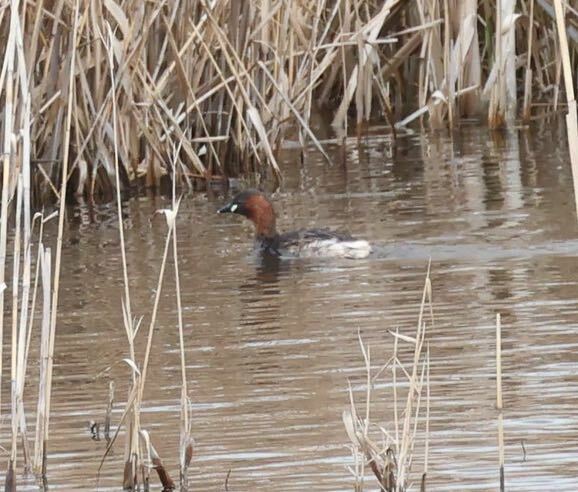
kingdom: Animalia
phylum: Chordata
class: Aves
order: Podicipediformes
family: Podicipedidae
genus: Tachybaptus
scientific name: Tachybaptus ruficollis
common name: Little grebe
